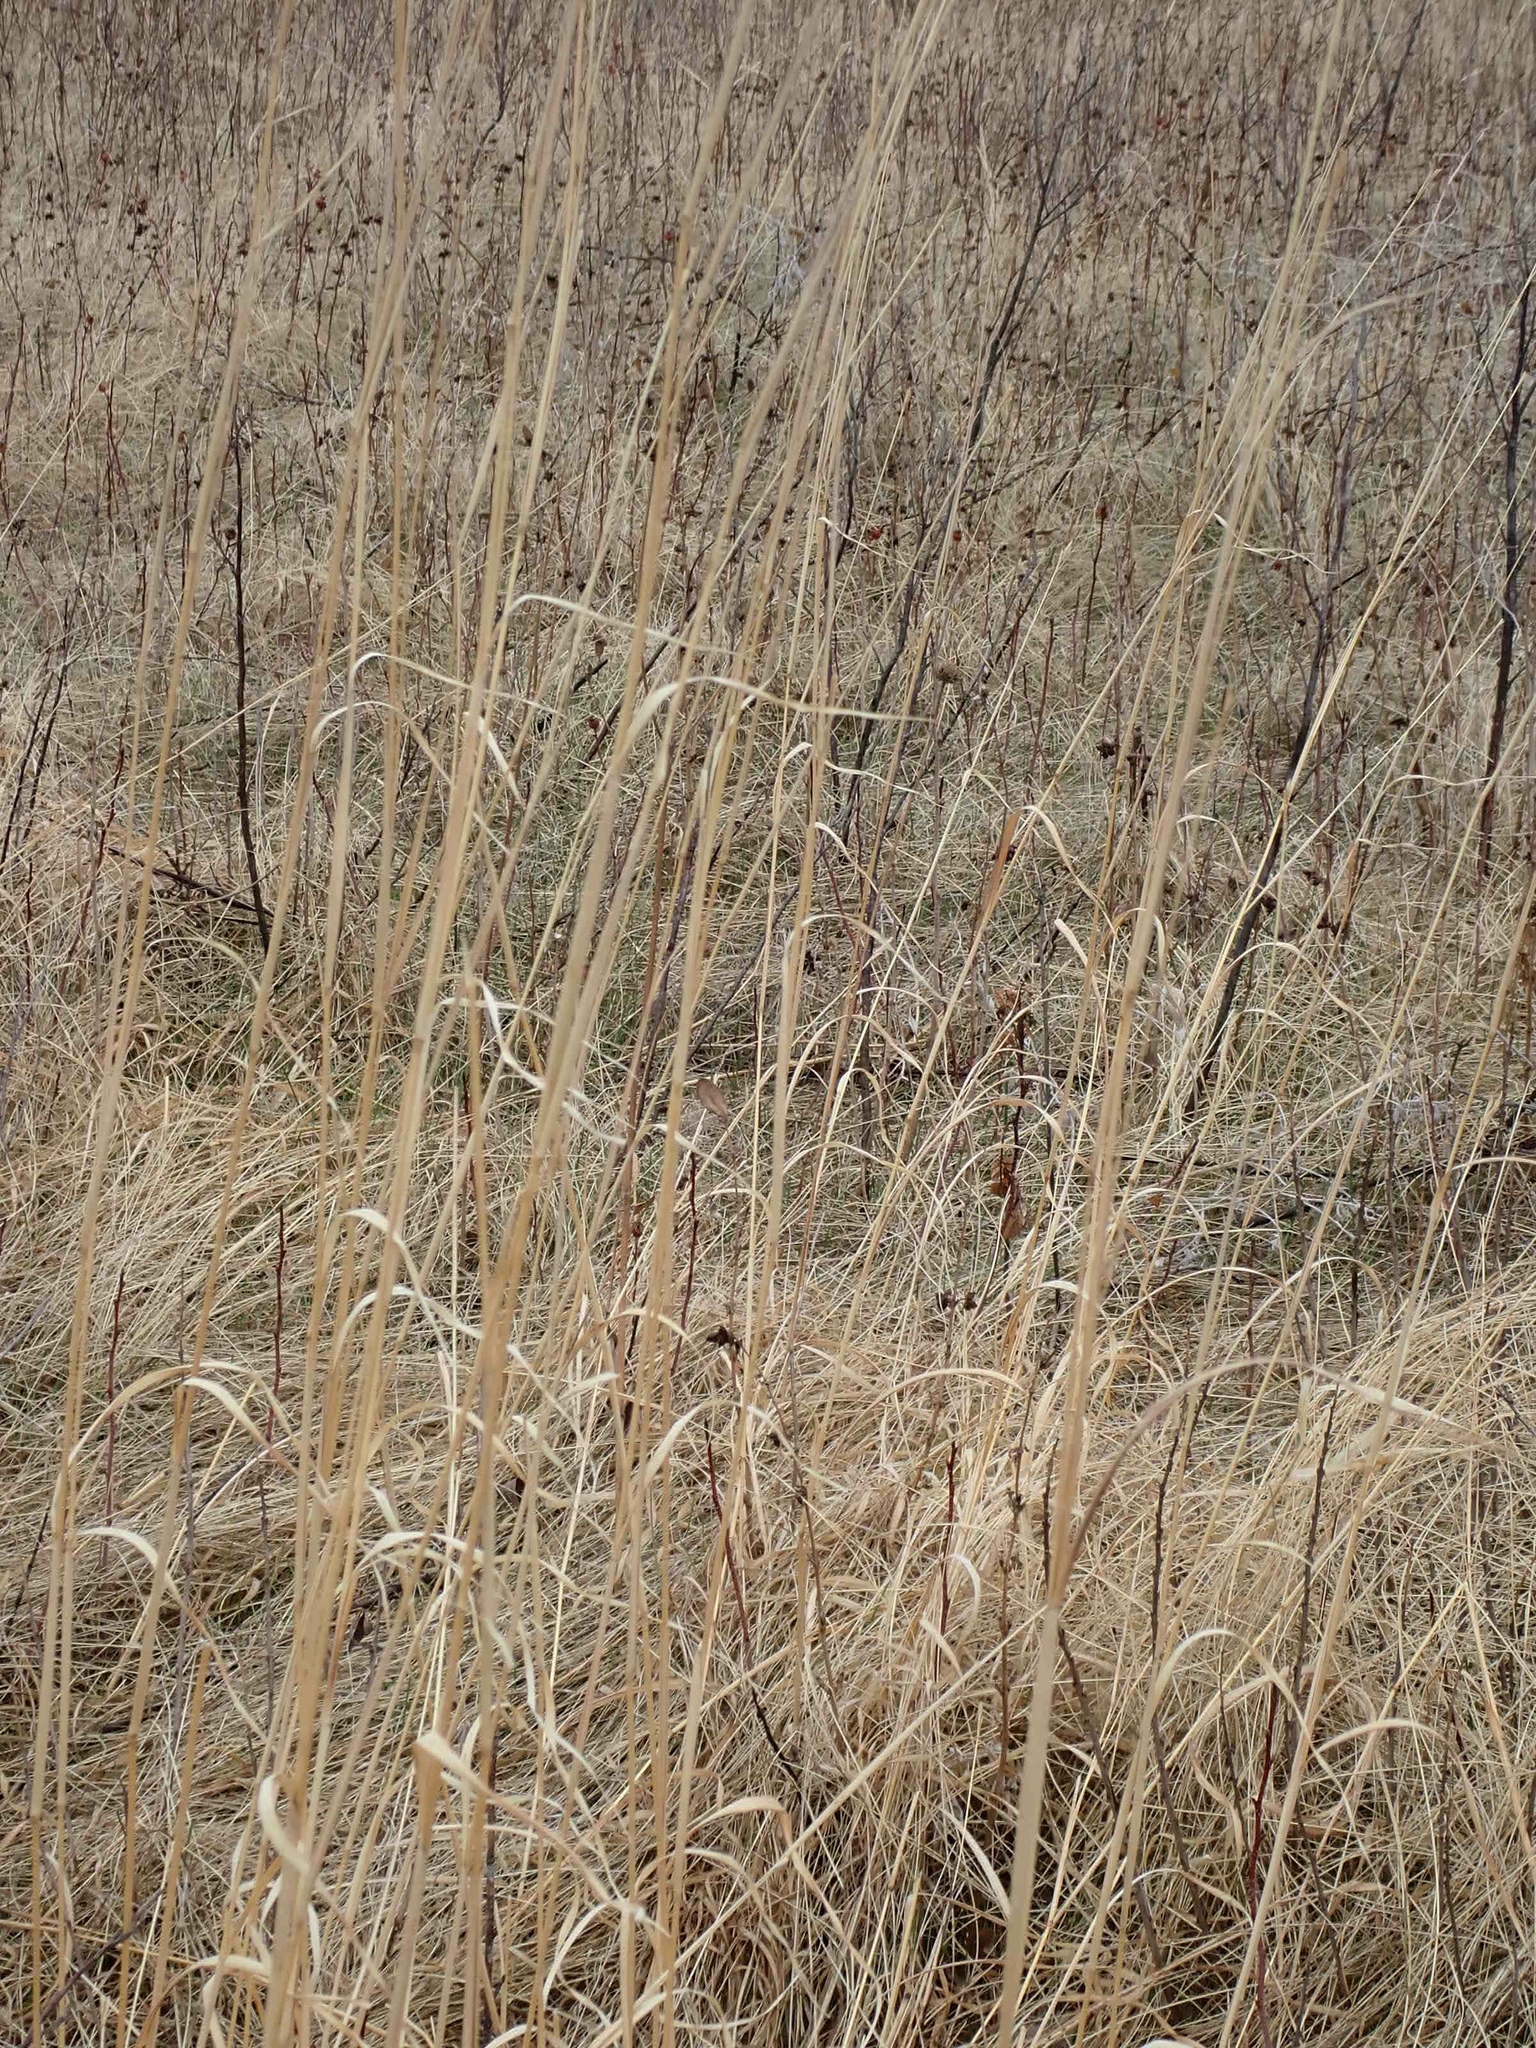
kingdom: Plantae
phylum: Tracheophyta
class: Liliopsida
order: Poales
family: Poaceae
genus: Andropogon
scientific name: Andropogon gerardi
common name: Big bluestem
